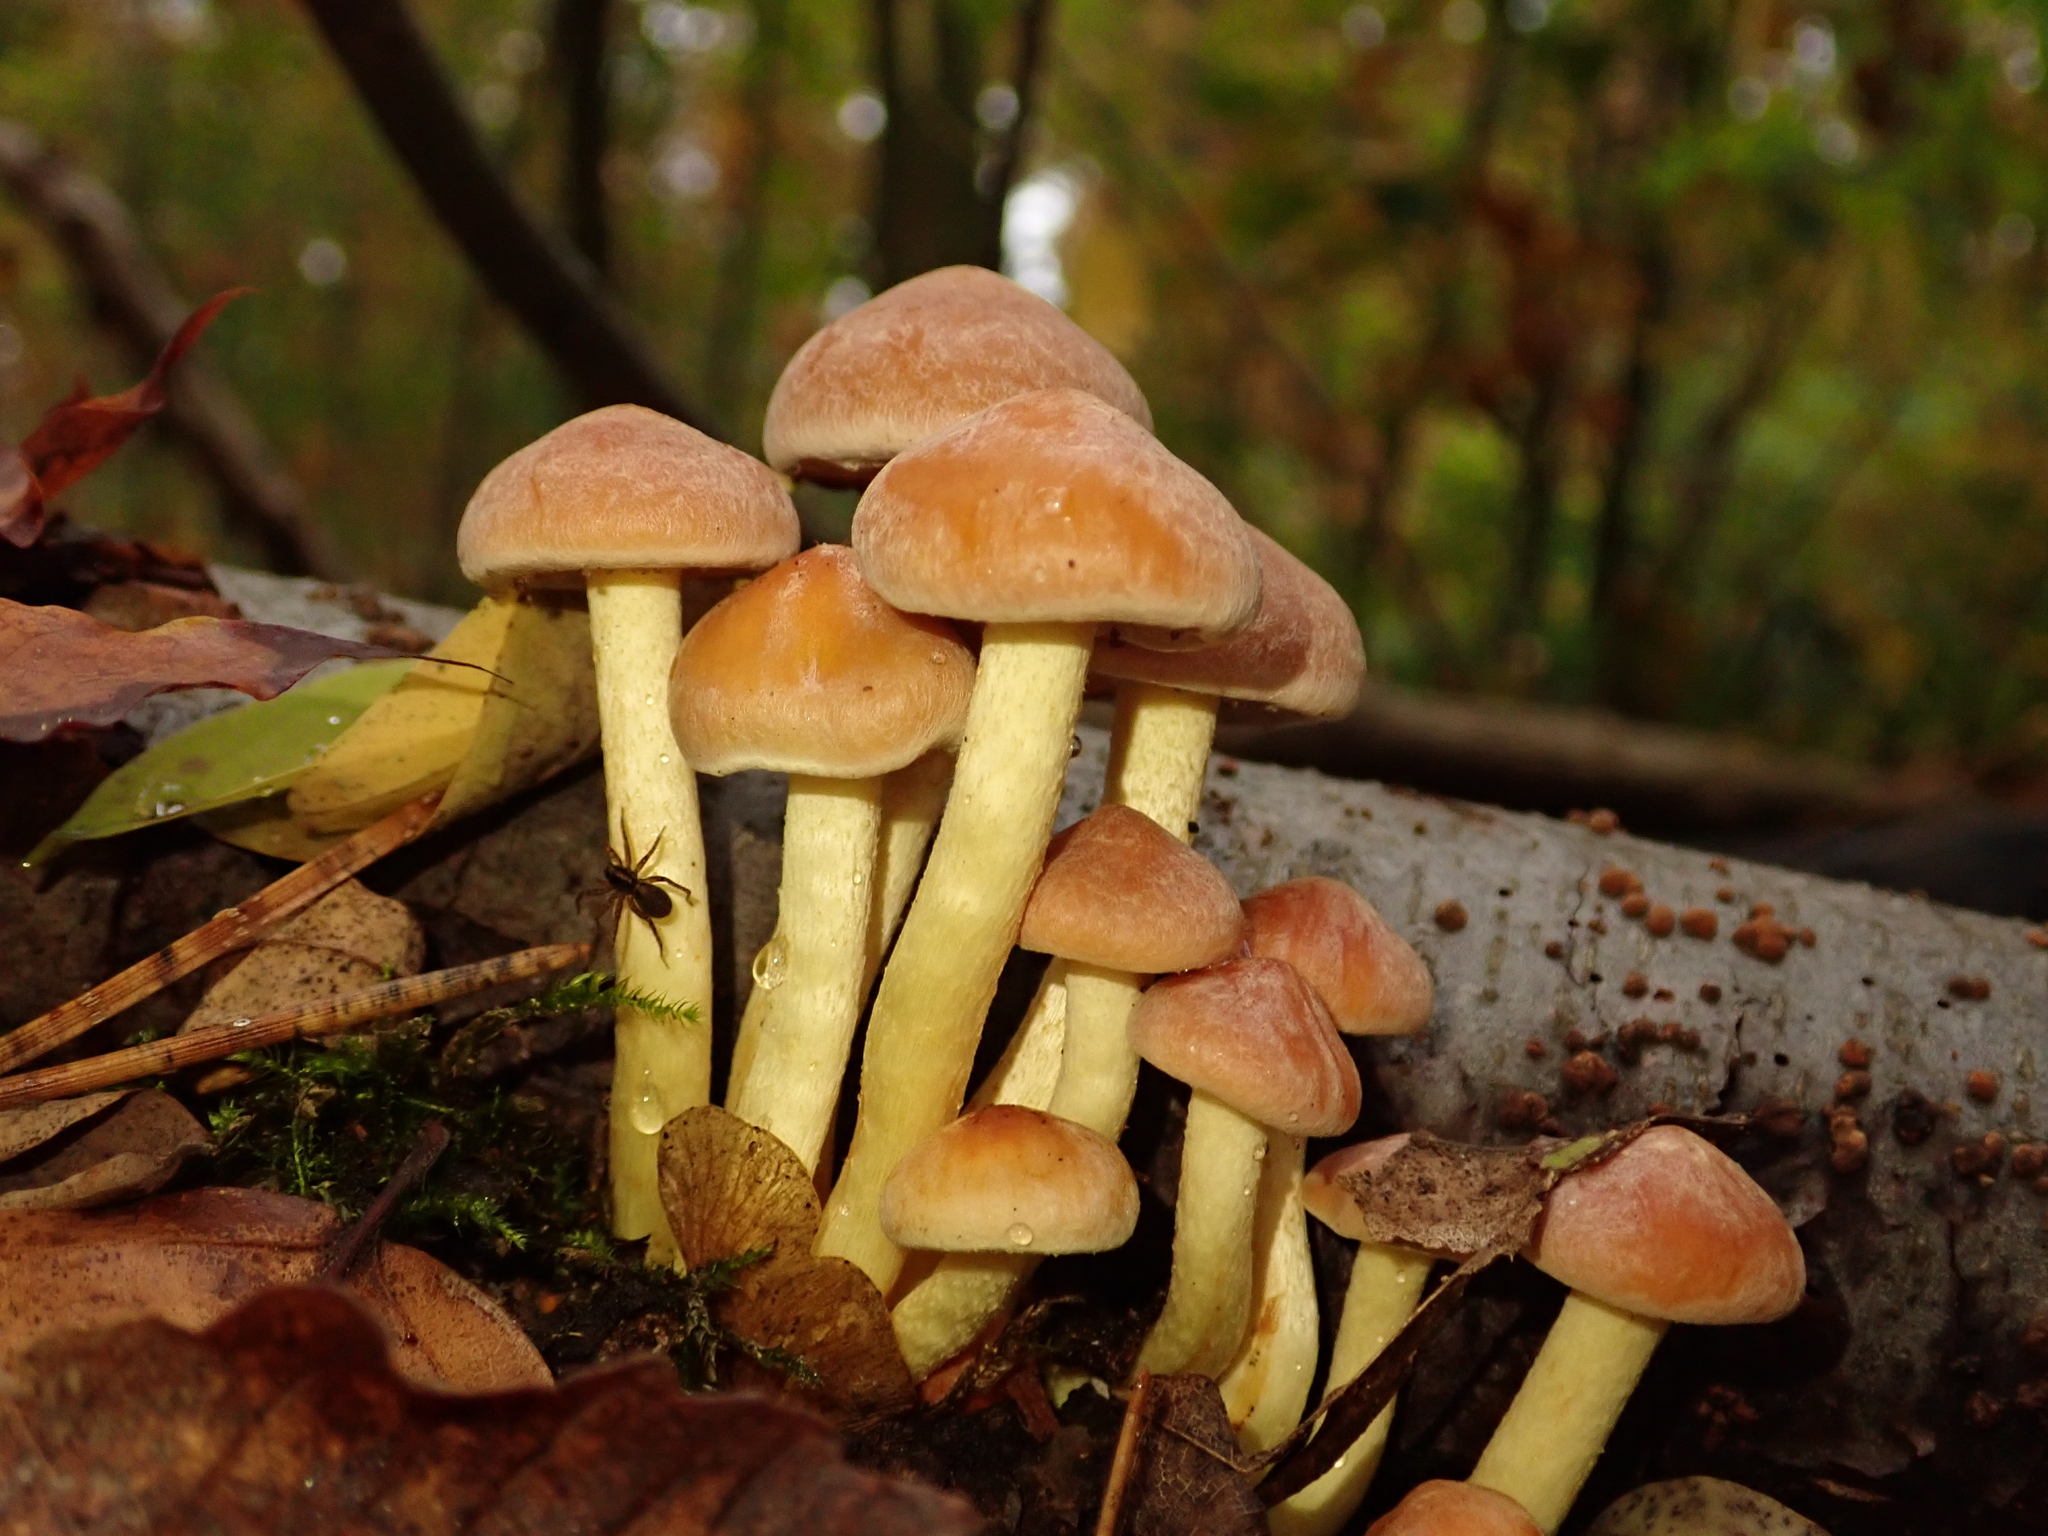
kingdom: Fungi
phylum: Basidiomycota
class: Agaricomycetes
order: Agaricales
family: Strophariaceae
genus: Hypholoma
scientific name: Hypholoma fasciculare
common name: Sulphur tuft
